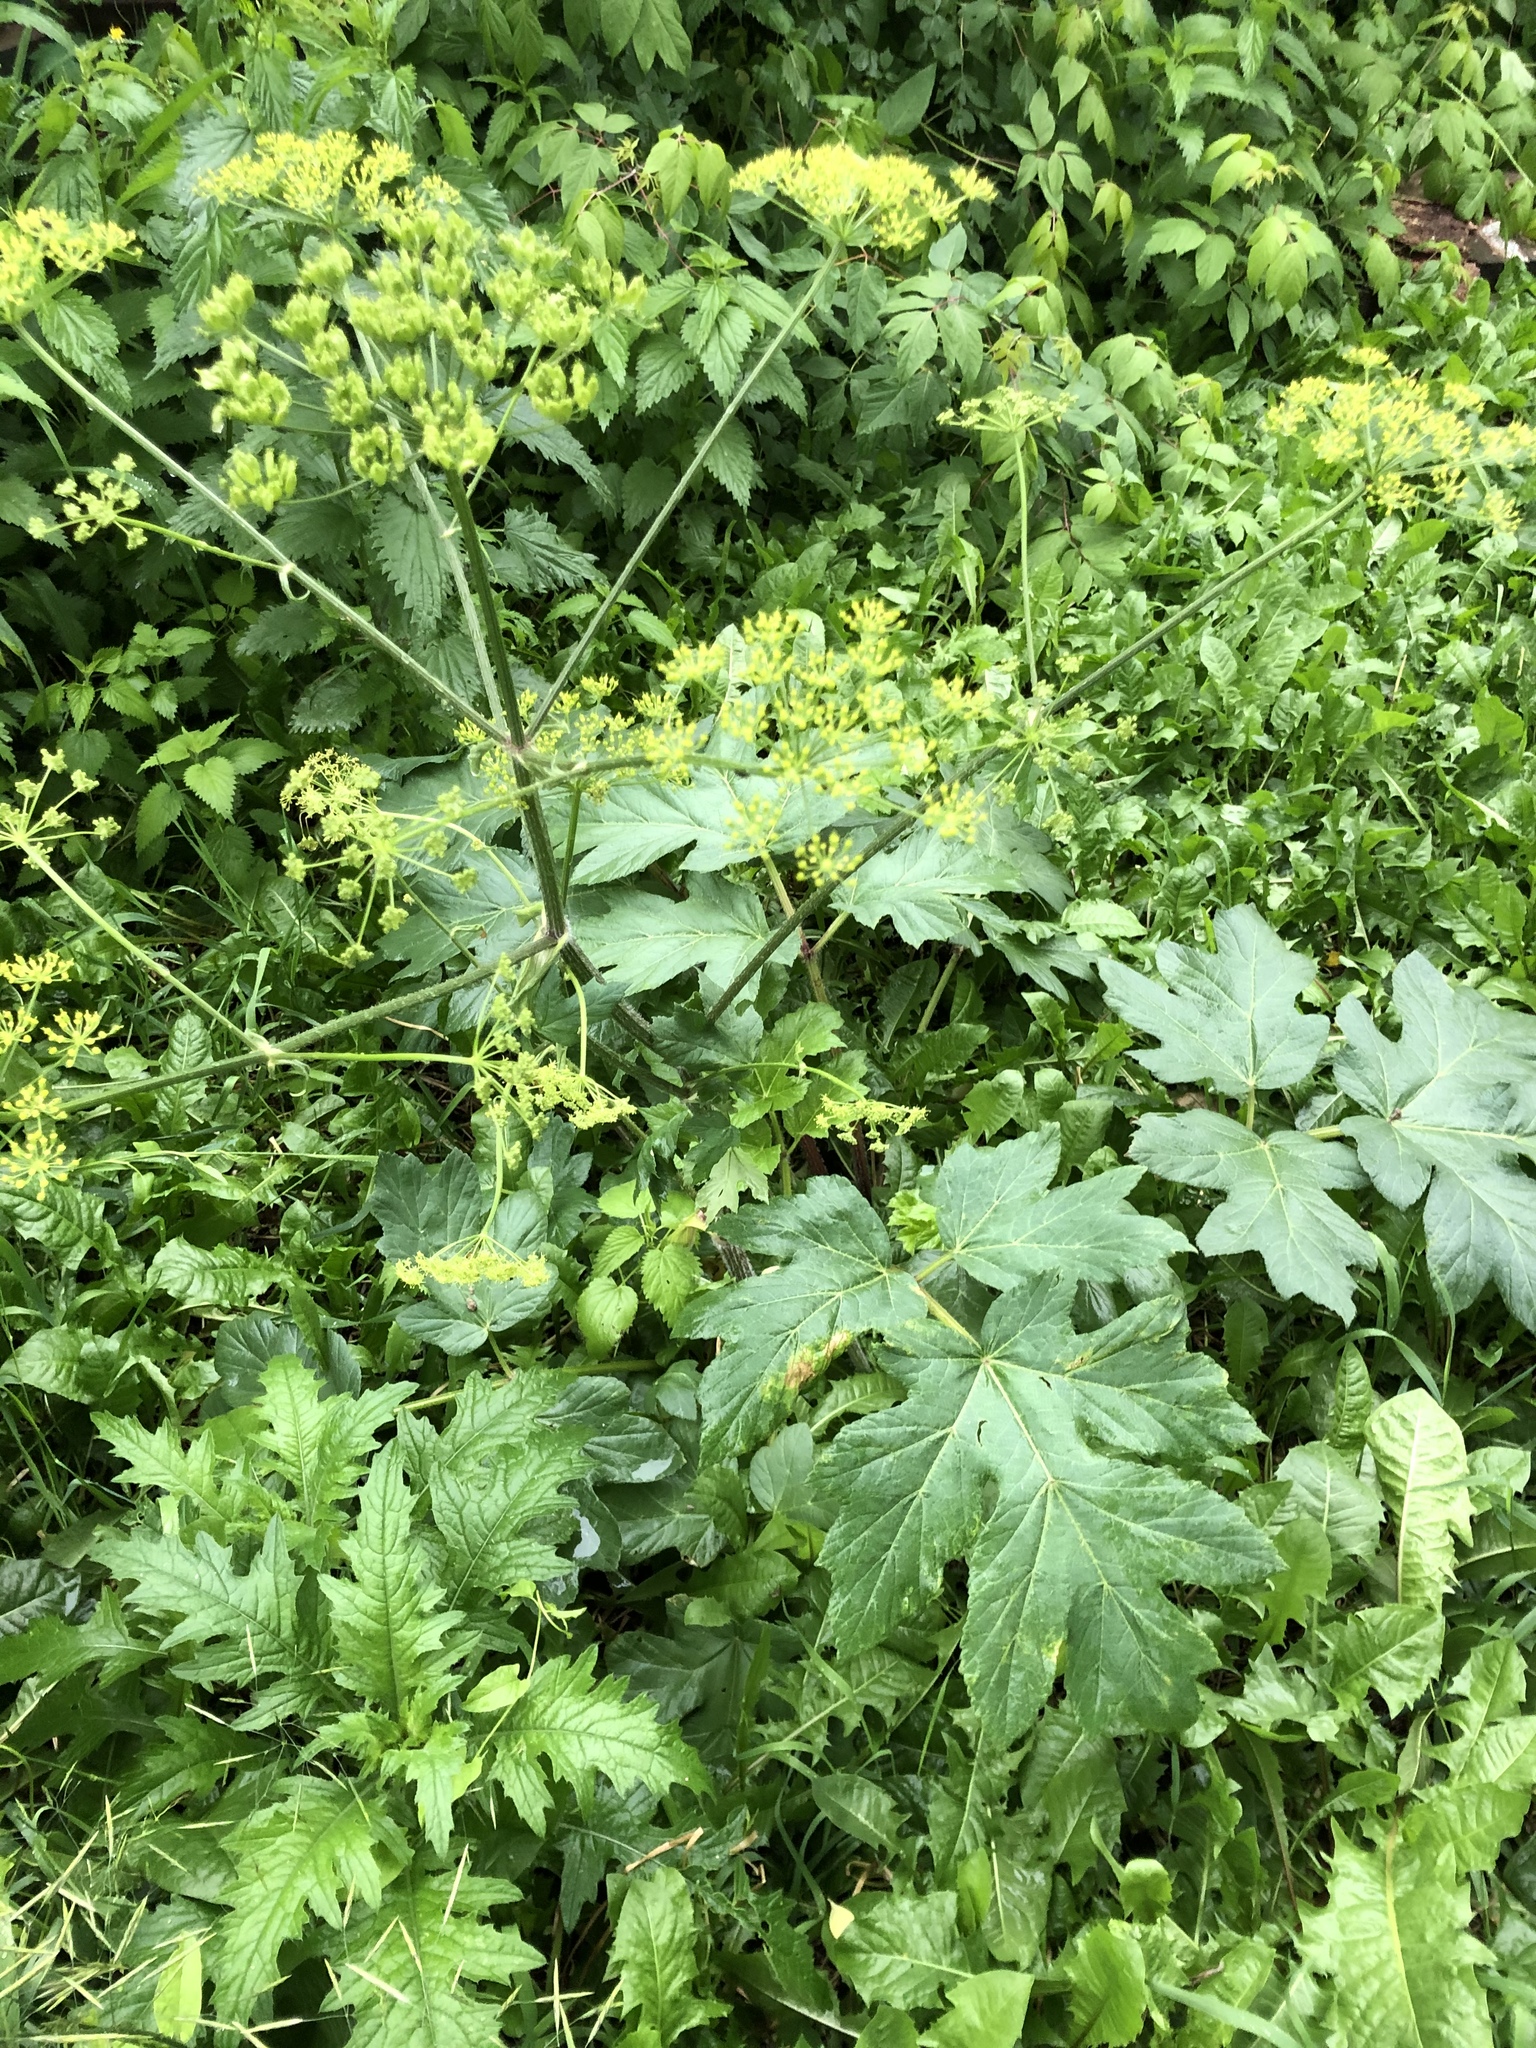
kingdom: Plantae
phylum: Tracheophyta
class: Magnoliopsida
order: Apiales
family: Apiaceae
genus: Heracleum
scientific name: Heracleum sphondylium
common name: Hogweed
